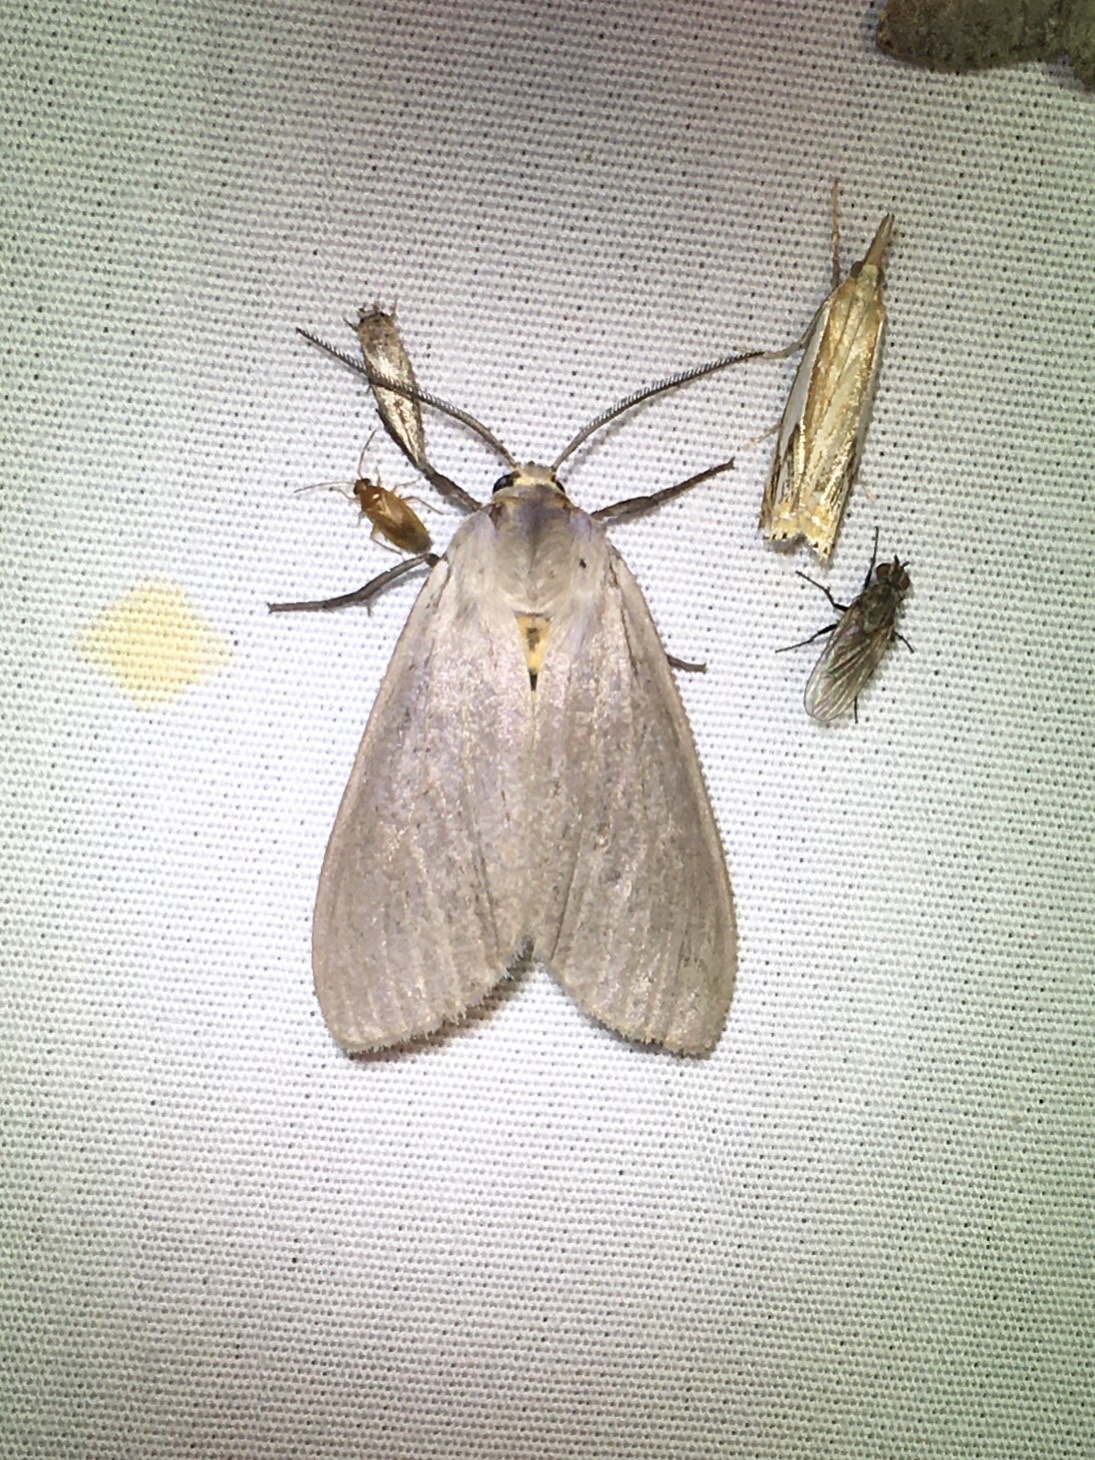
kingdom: Animalia
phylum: Arthropoda
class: Insecta
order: Lepidoptera
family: Erebidae
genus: Euchaetes
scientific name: Euchaetes egle
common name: Milkweed tussock moth
